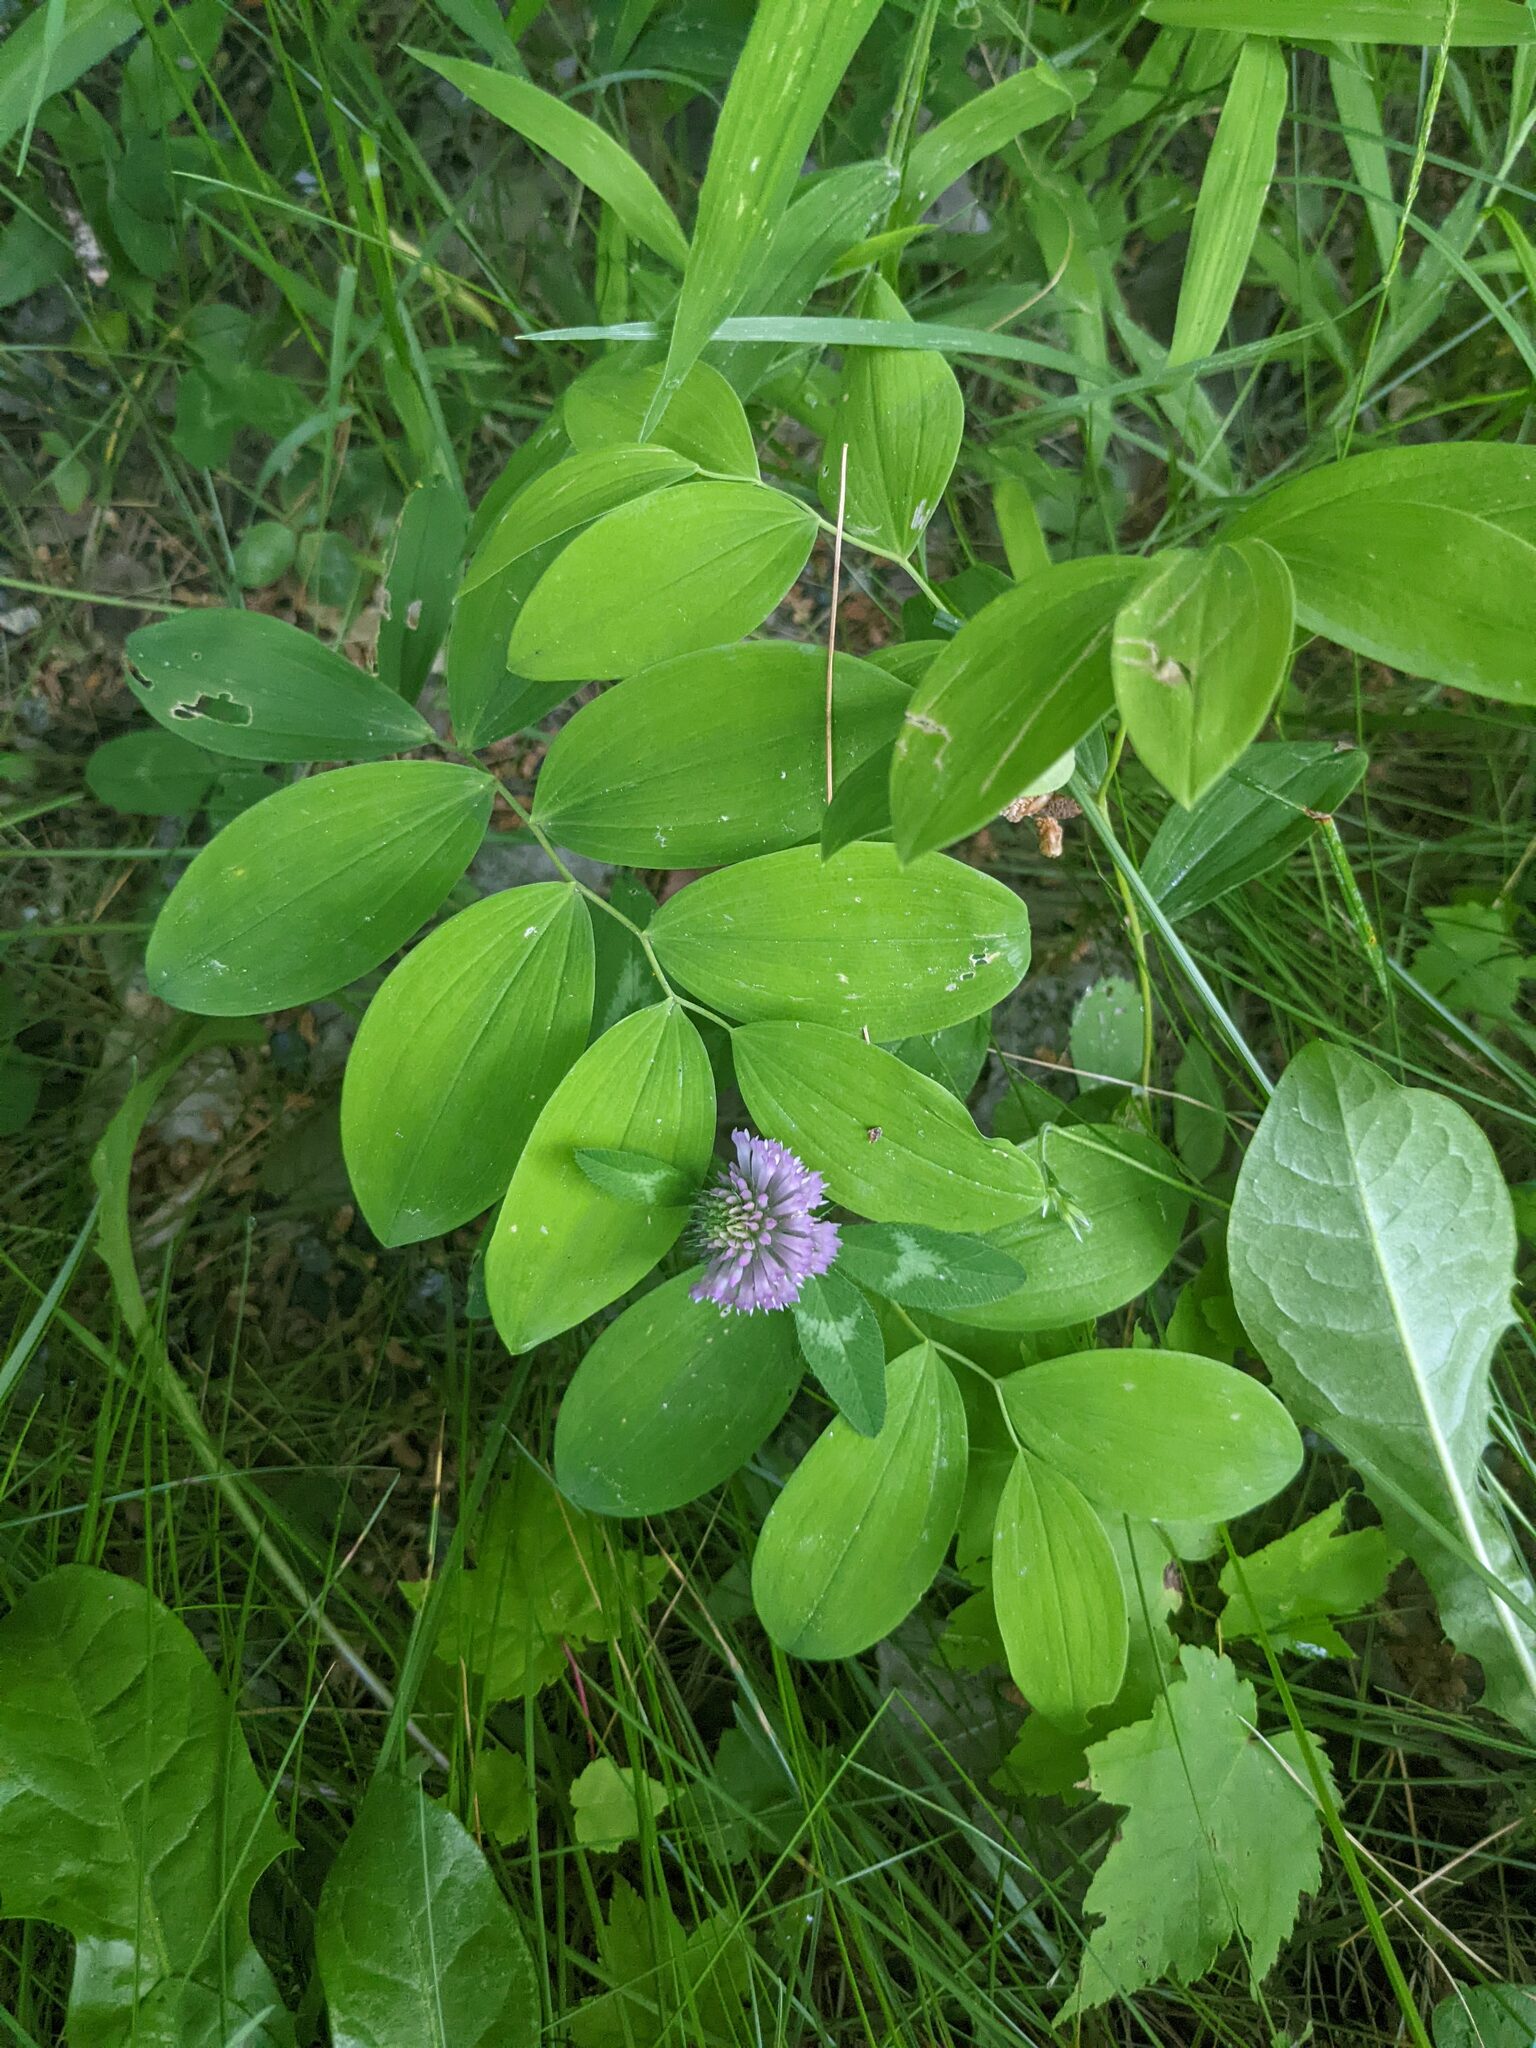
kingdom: Plantae
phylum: Tracheophyta
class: Liliopsida
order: Liliales
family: Colchicaceae
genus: Uvularia
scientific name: Uvularia sessilifolia
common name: Straw-lily
